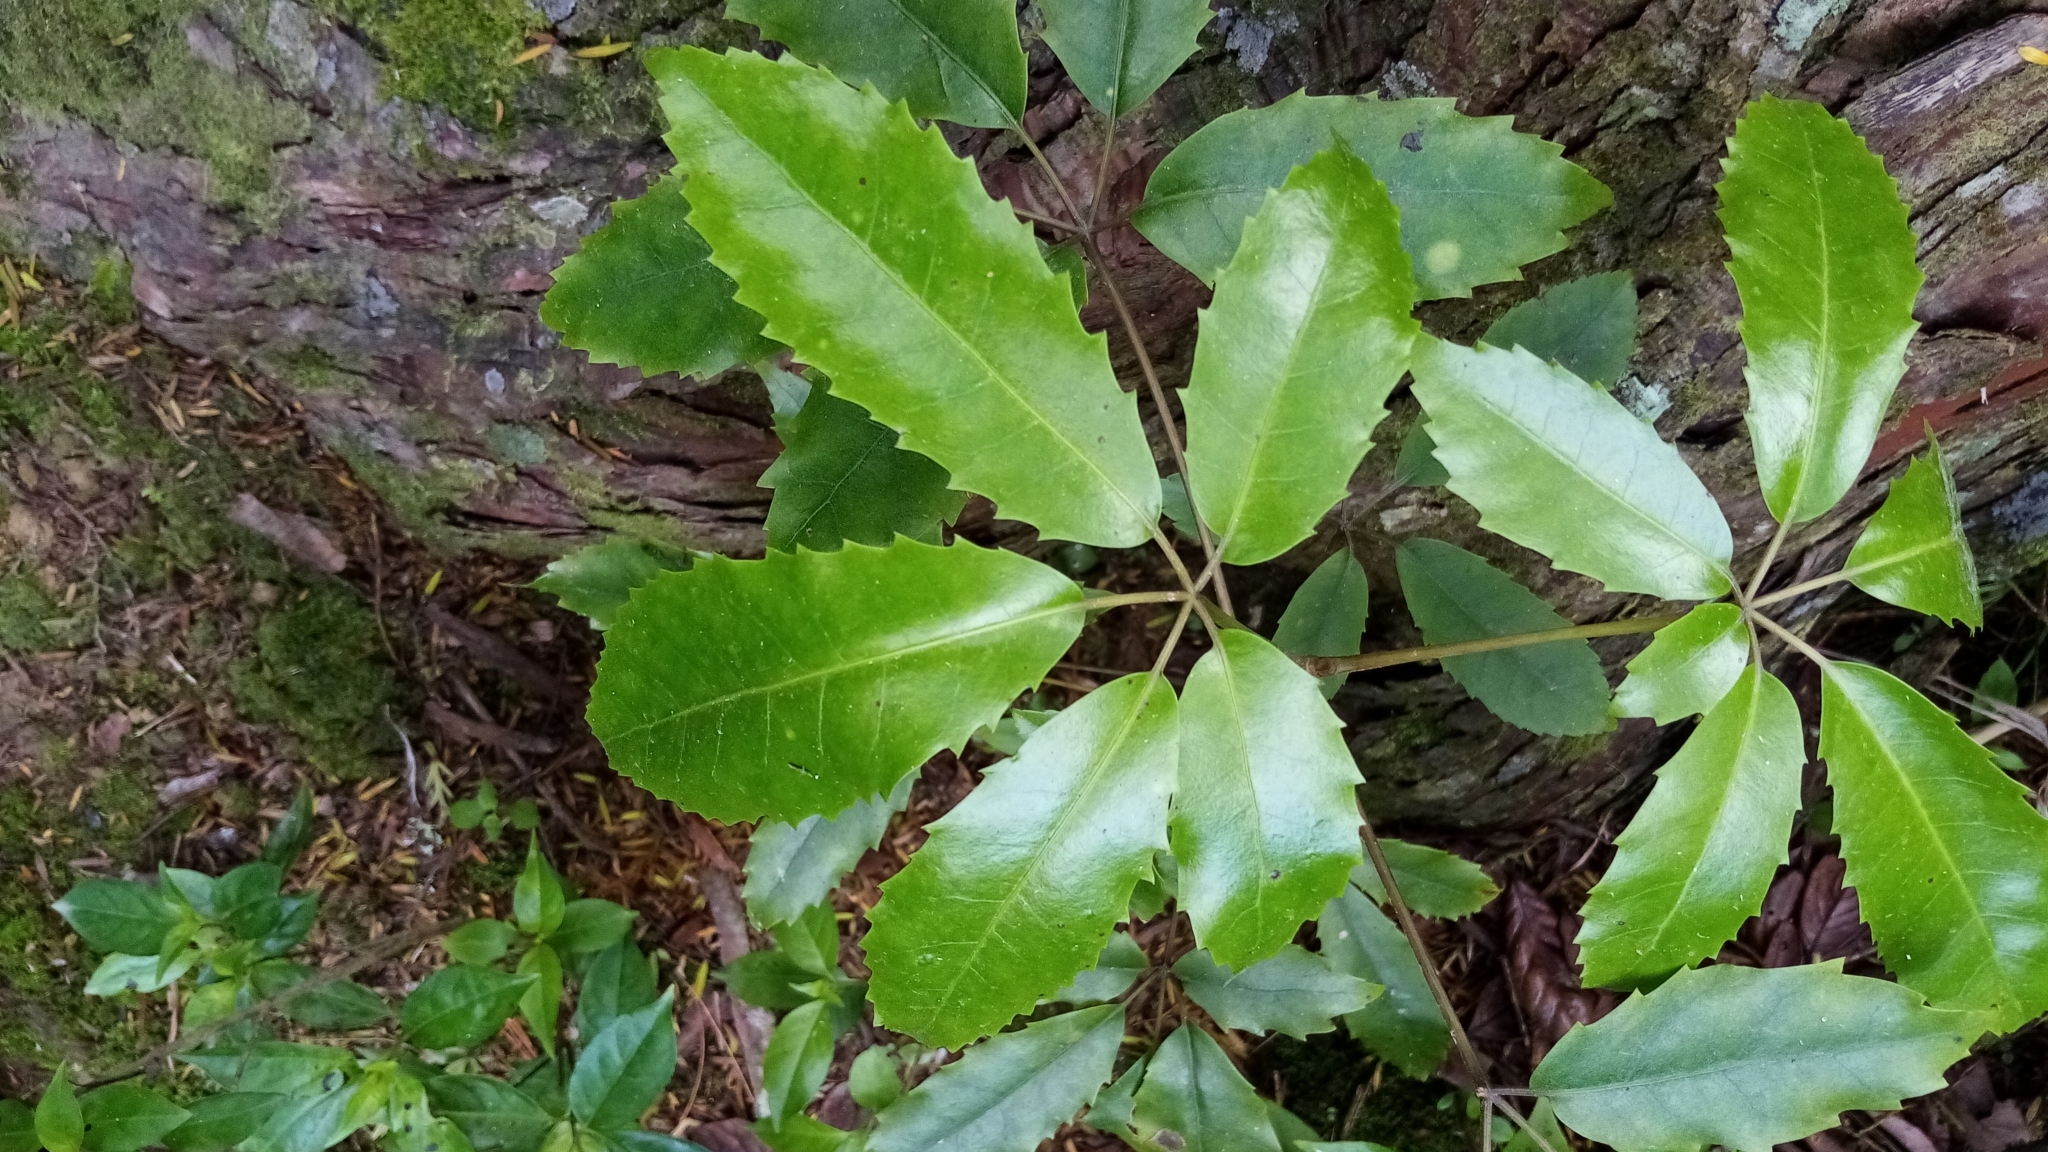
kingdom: Plantae
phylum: Tracheophyta
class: Magnoliopsida
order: Apiales
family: Araliaceae
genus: Neopanax
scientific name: Neopanax arboreus
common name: Five-fingers
